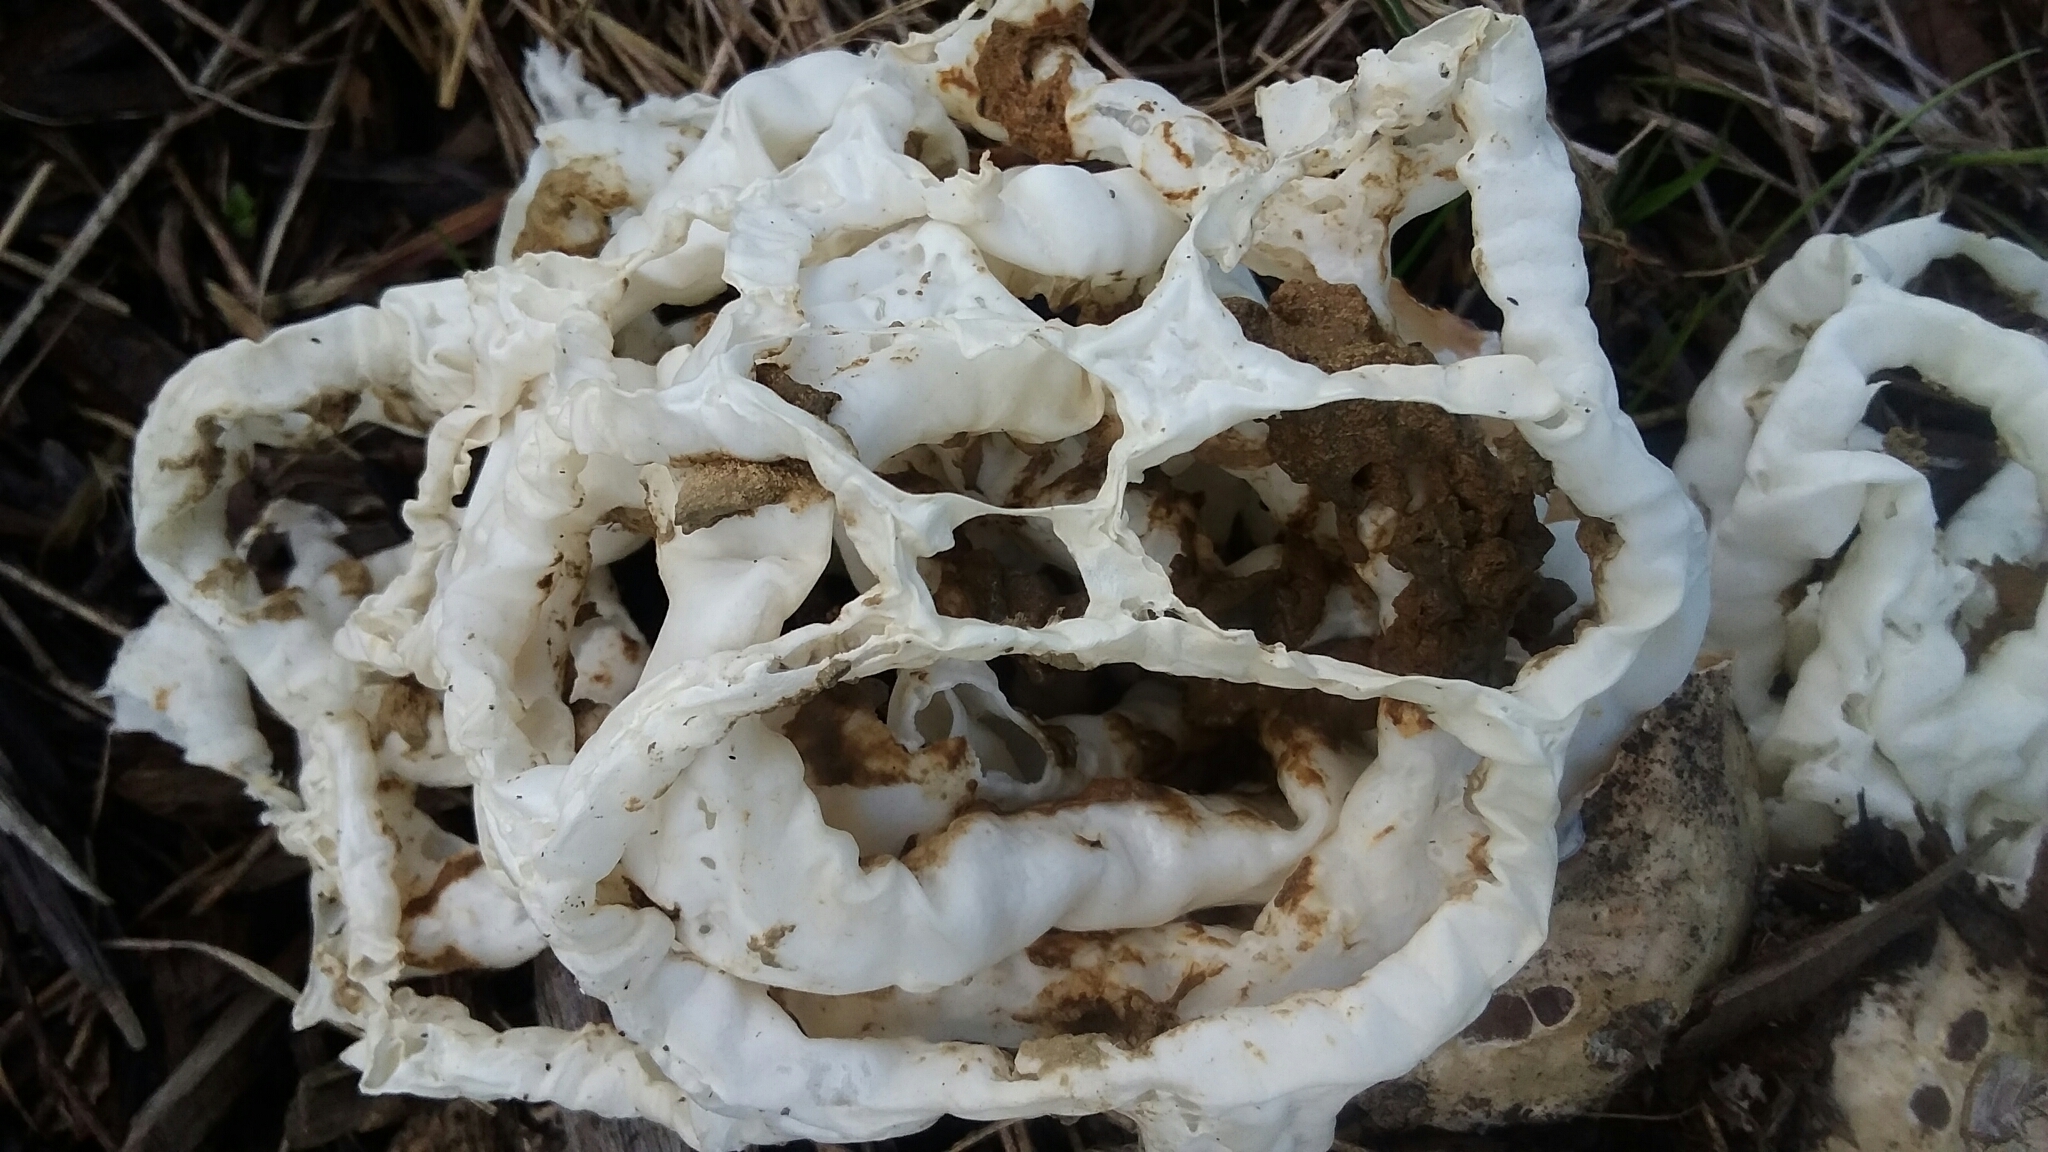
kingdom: Fungi
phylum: Basidiomycota
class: Agaricomycetes
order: Phallales
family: Phallaceae
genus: Ileodictyon
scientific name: Ileodictyon cibarium
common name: Basket fungus
